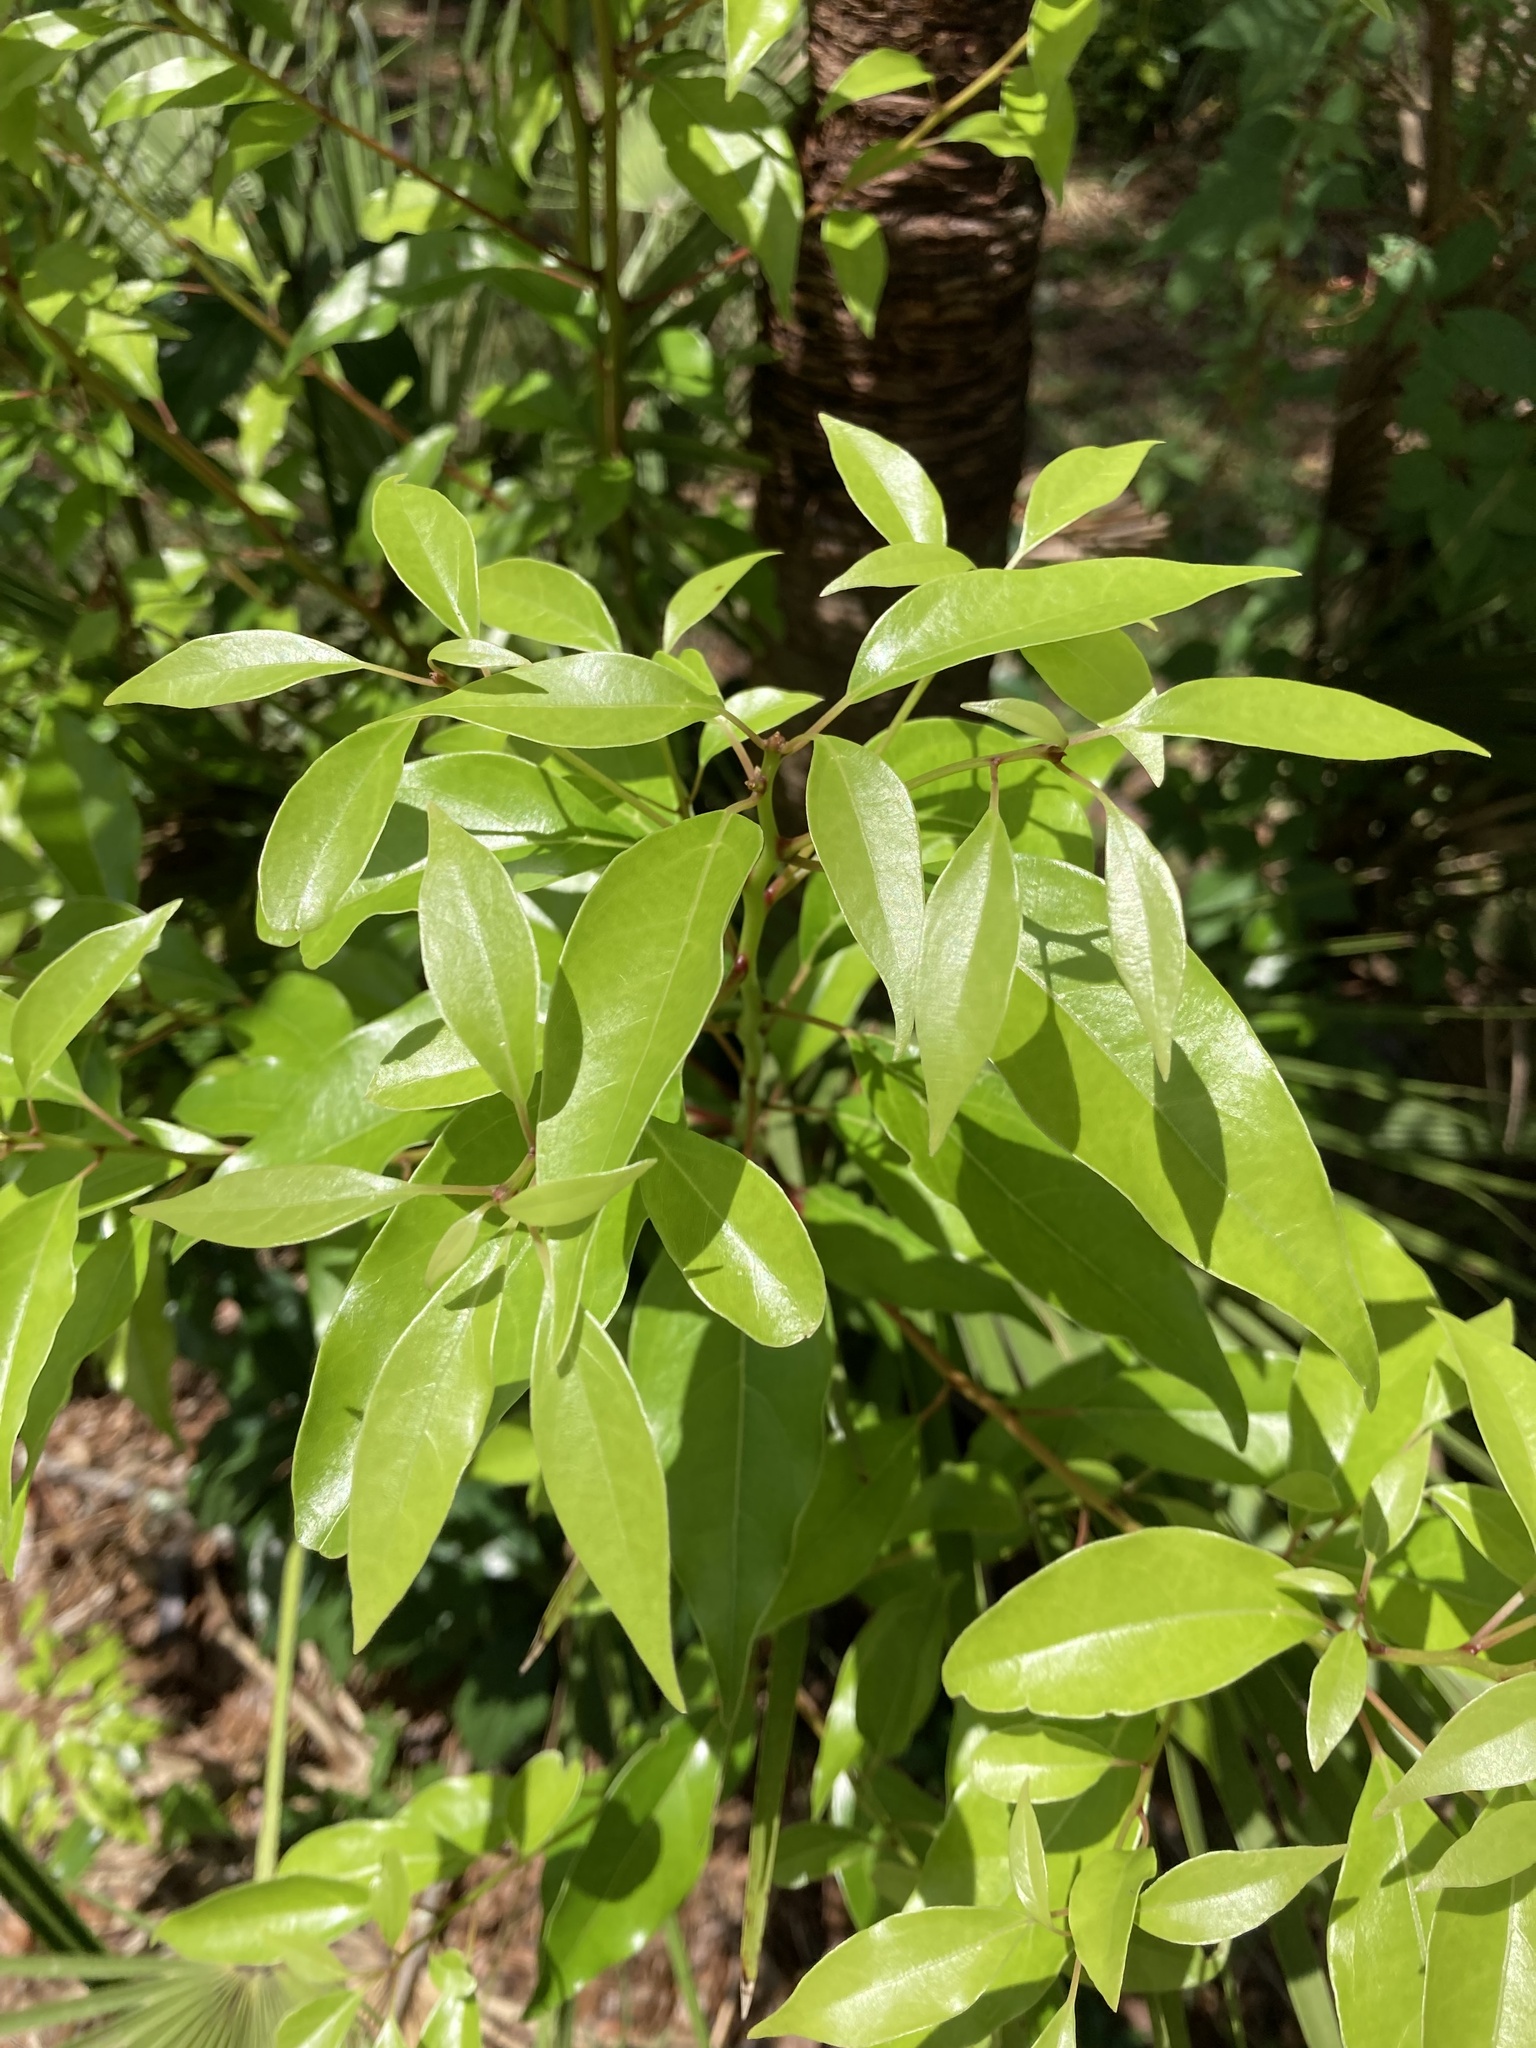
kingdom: Plantae
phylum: Tracheophyta
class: Magnoliopsida
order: Laurales
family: Lauraceae
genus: Cinnamomum
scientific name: Cinnamomum camphora
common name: Camphortree
